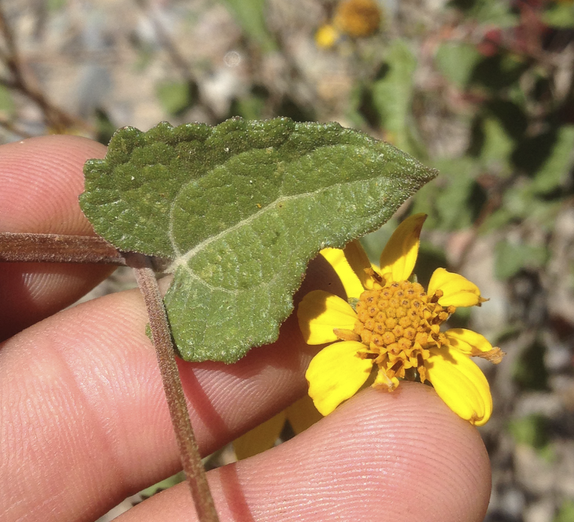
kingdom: Plantae
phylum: Tracheophyta
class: Magnoliopsida
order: Asterales
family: Asteraceae
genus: Bahiopsis
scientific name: Bahiopsis triangularis
